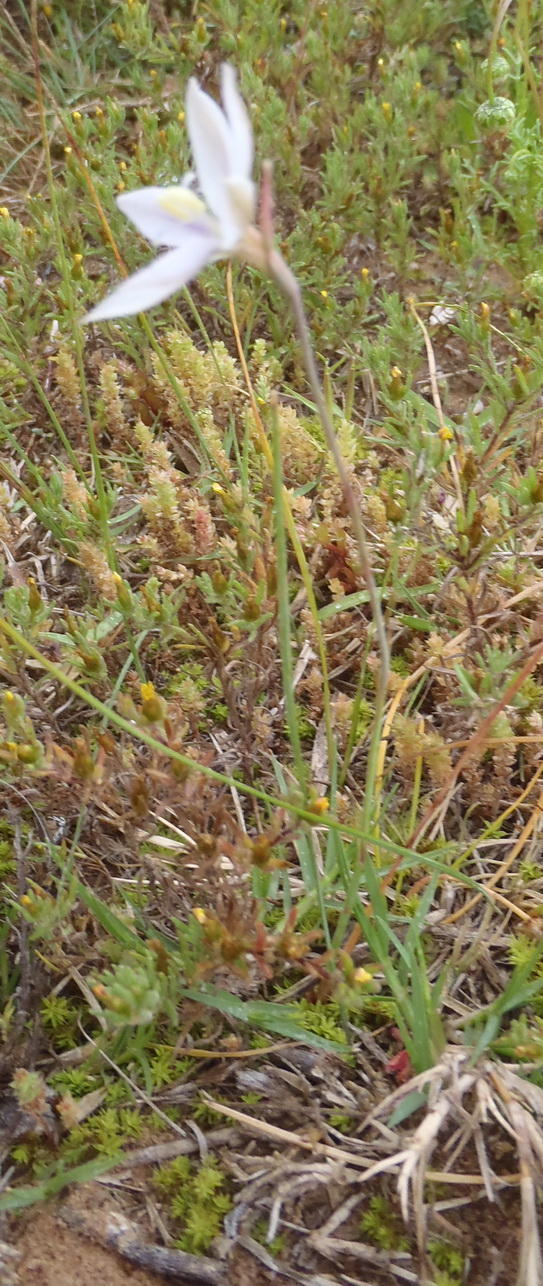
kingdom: Plantae
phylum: Tracheophyta
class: Liliopsida
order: Asparagales
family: Iridaceae
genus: Gladiolus
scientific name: Gladiolus stellatus
